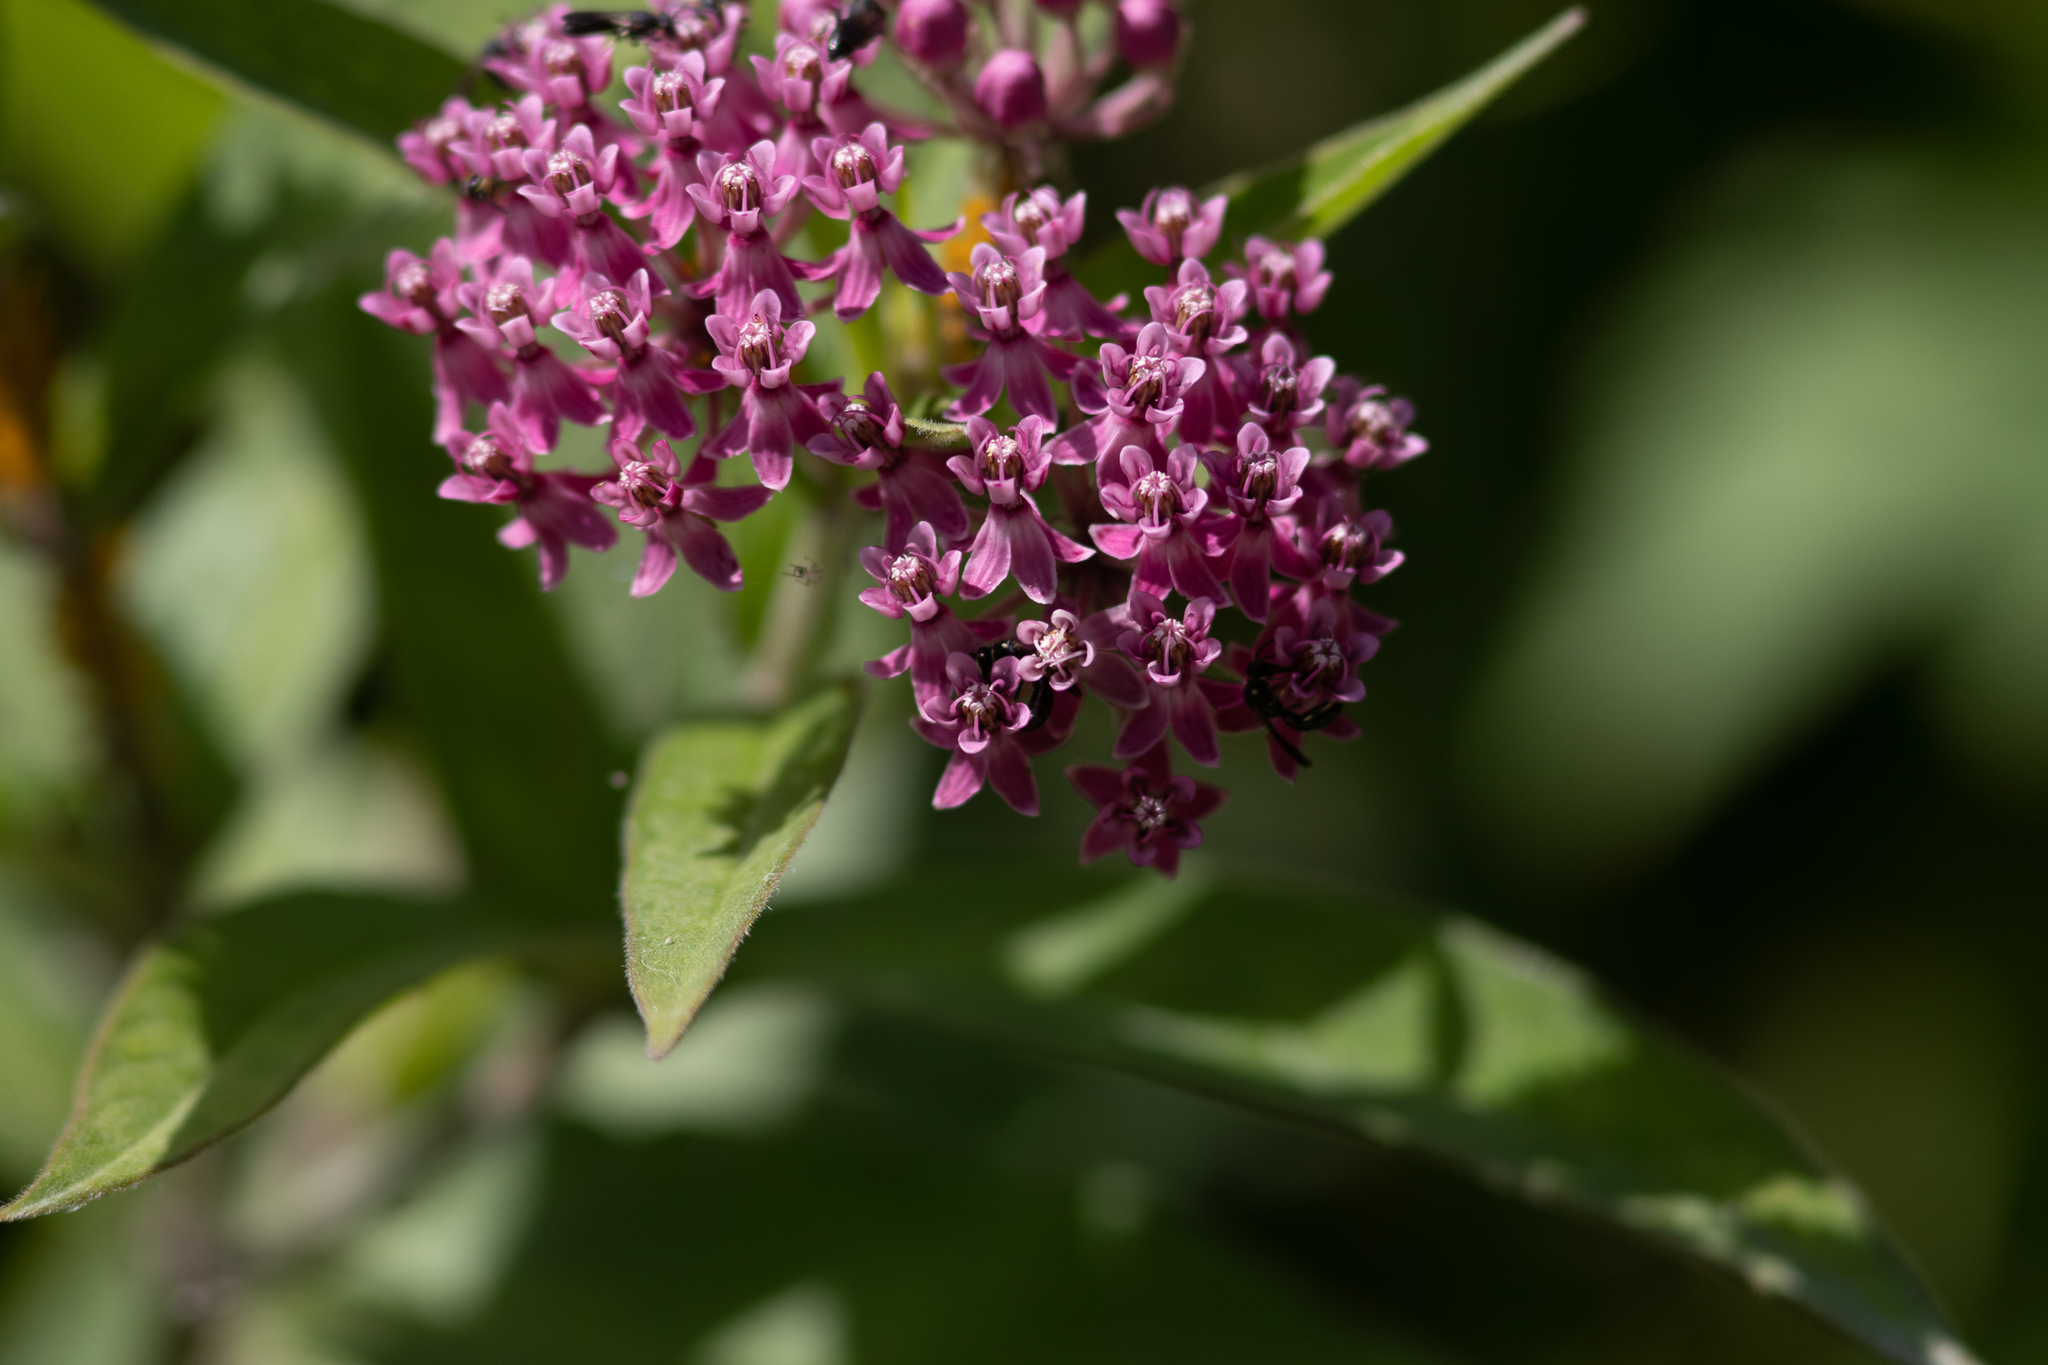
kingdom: Plantae
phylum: Tracheophyta
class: Magnoliopsida
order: Gentianales
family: Apocynaceae
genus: Asclepias
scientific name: Asclepias incarnata
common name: Swamp milkweed
